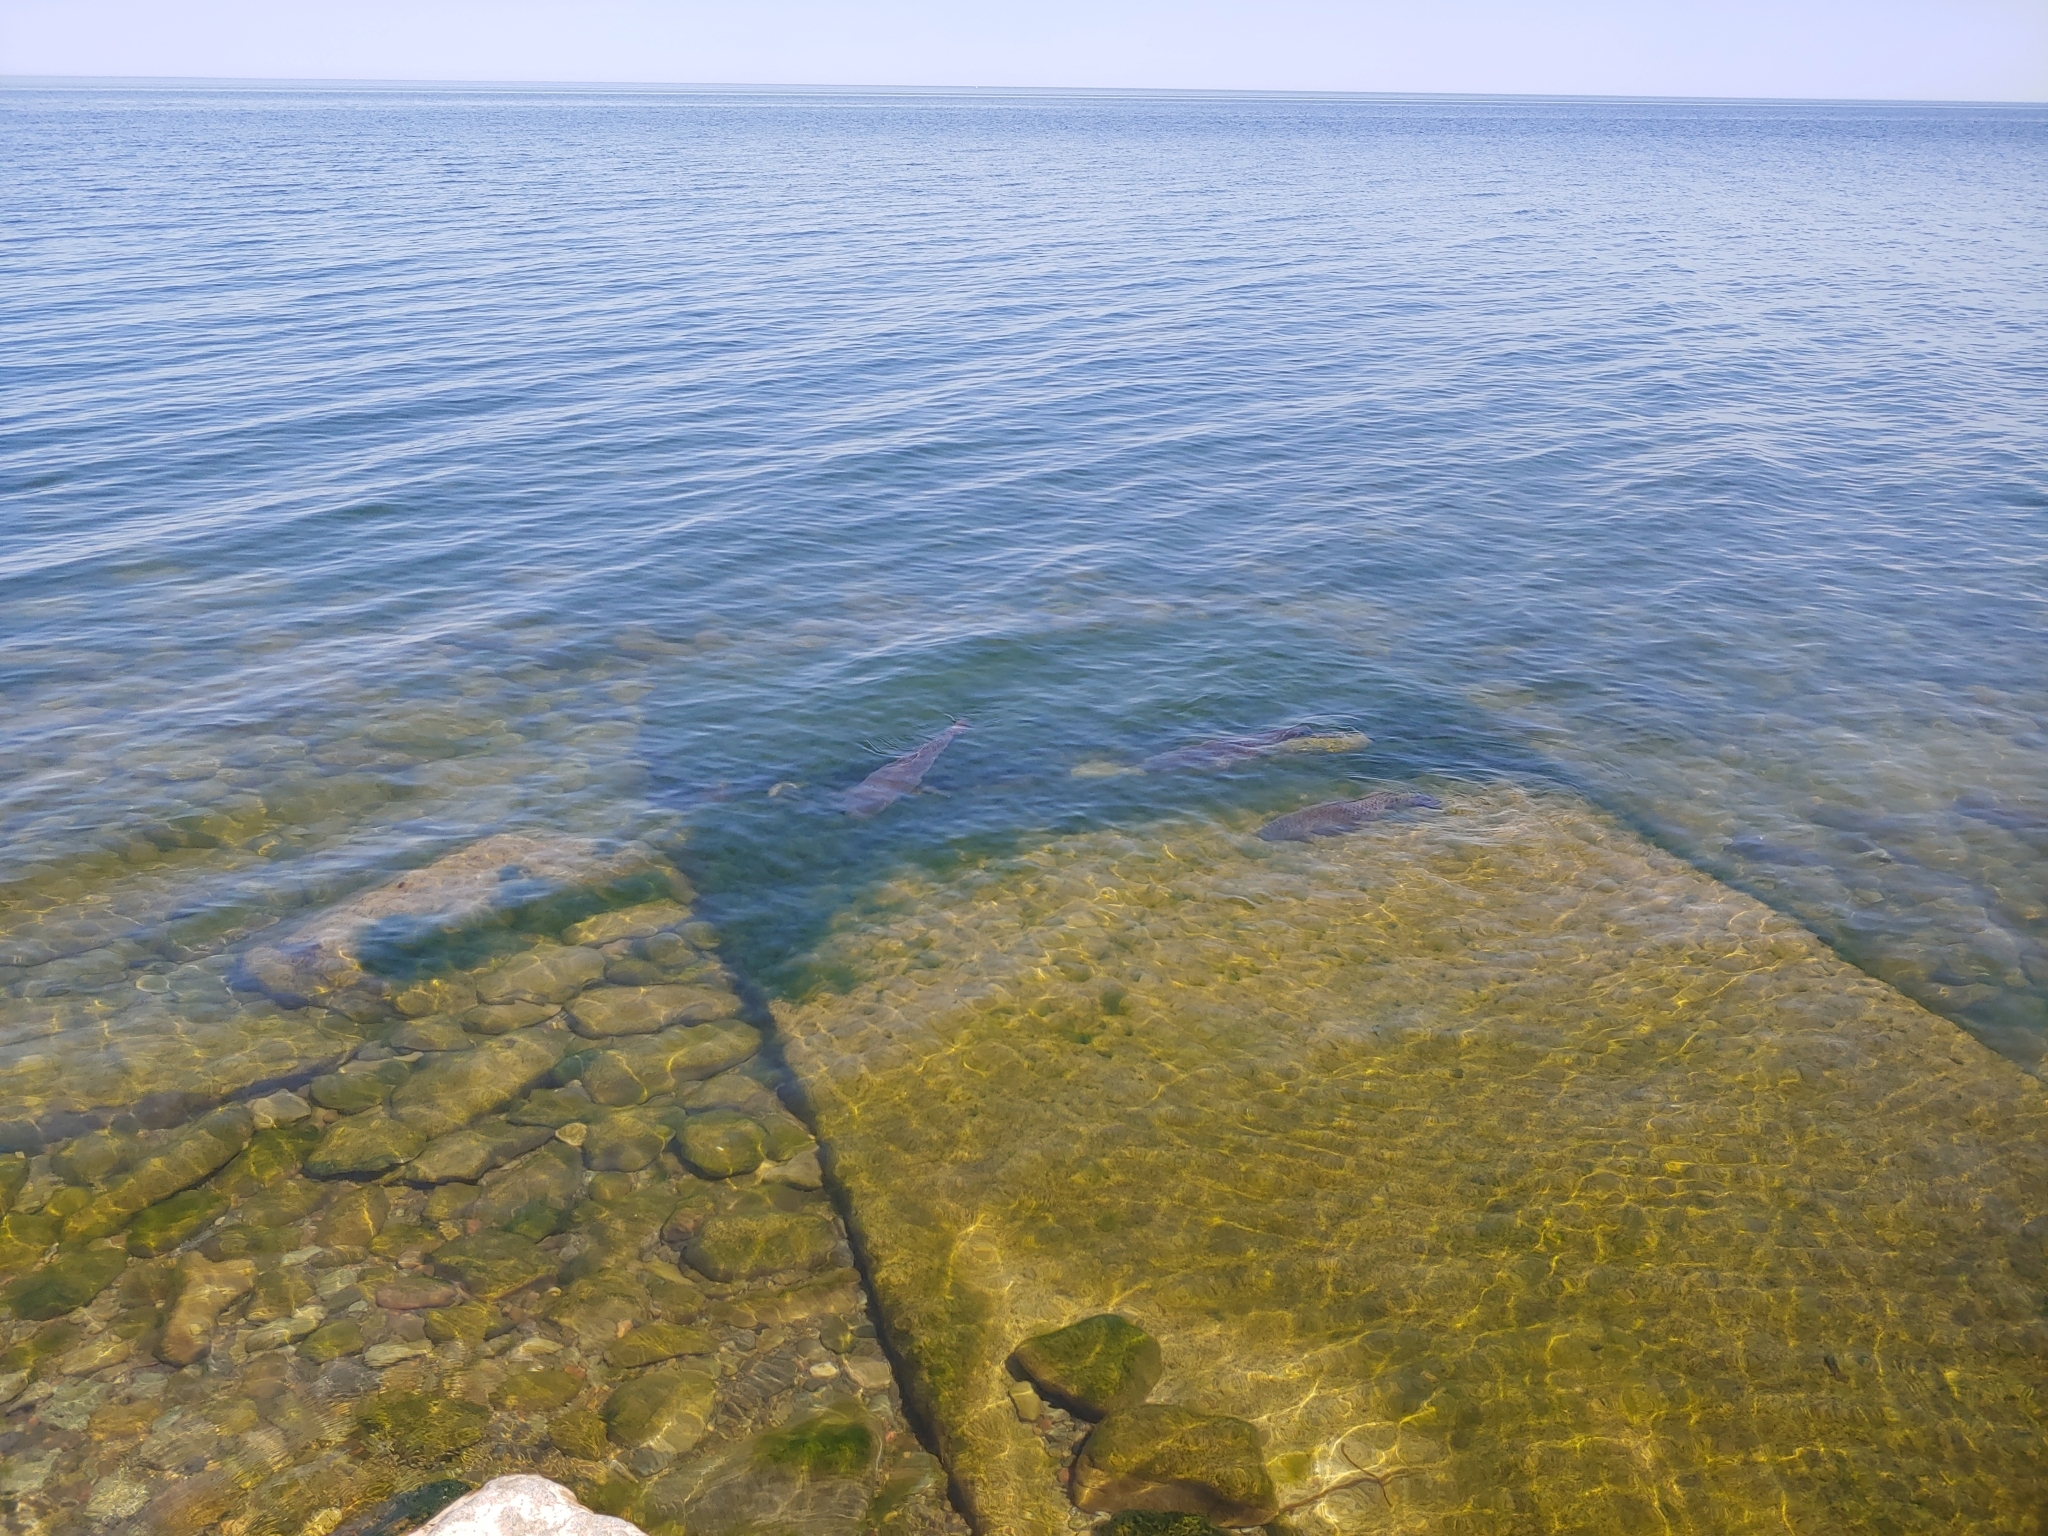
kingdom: Animalia
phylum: Chordata
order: Cypriniformes
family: Cyprinidae
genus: Cyprinus
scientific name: Cyprinus carpio
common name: Common carp
